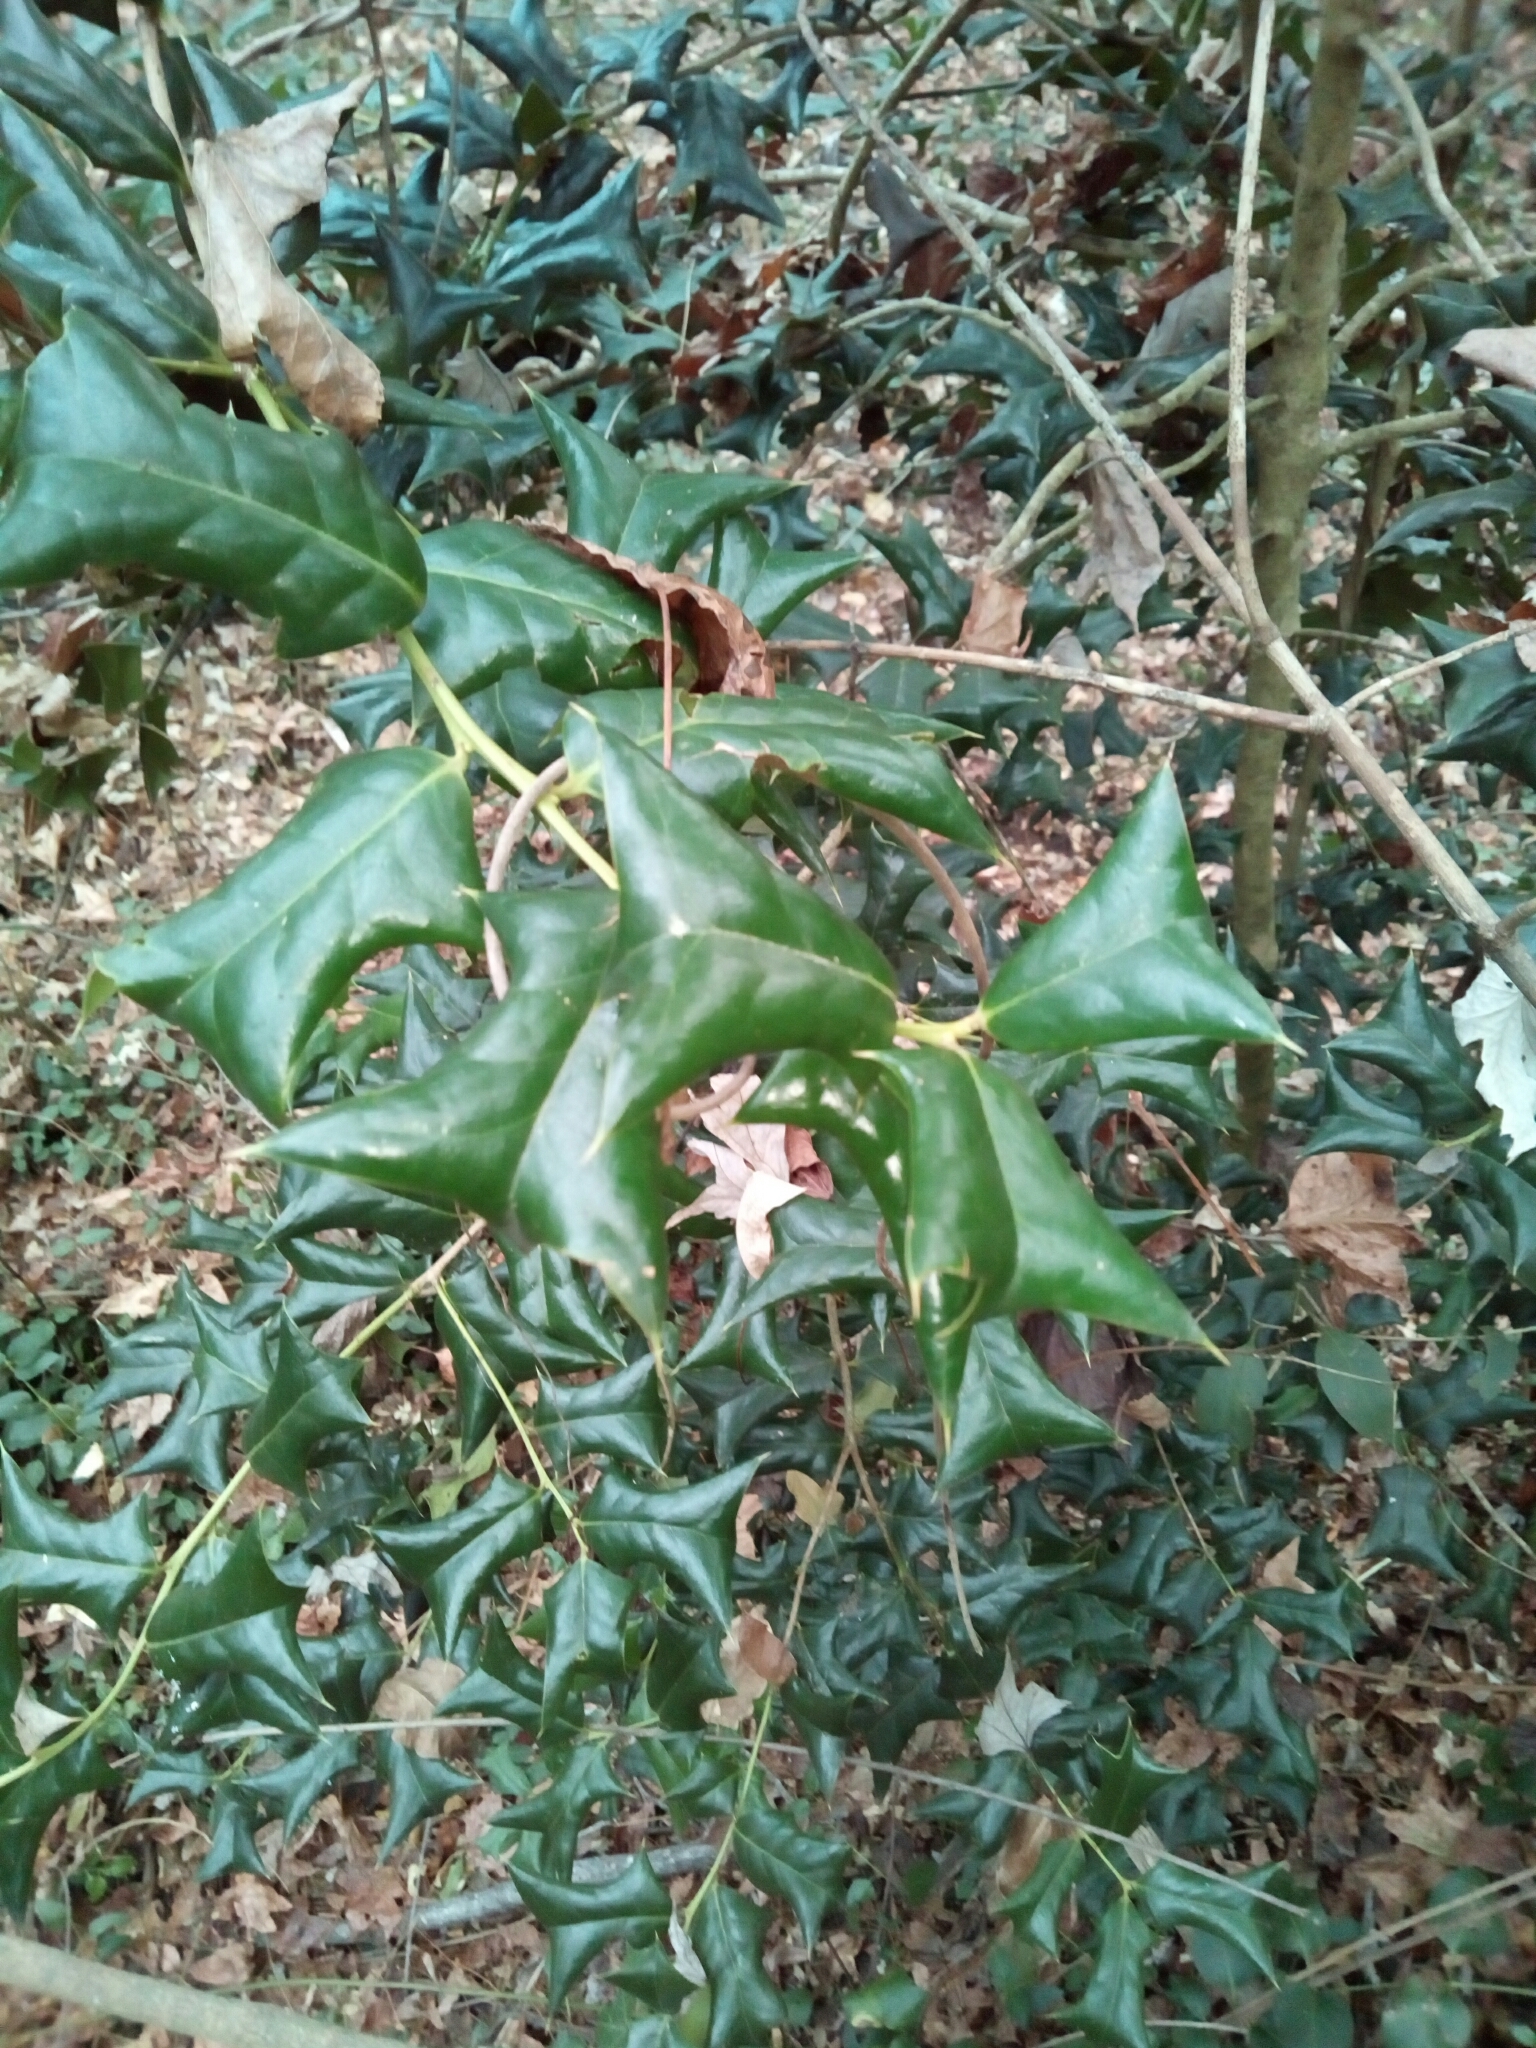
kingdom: Plantae
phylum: Tracheophyta
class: Magnoliopsida
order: Aquifoliales
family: Aquifoliaceae
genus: Ilex
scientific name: Ilex cornuta
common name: Chinese holly
